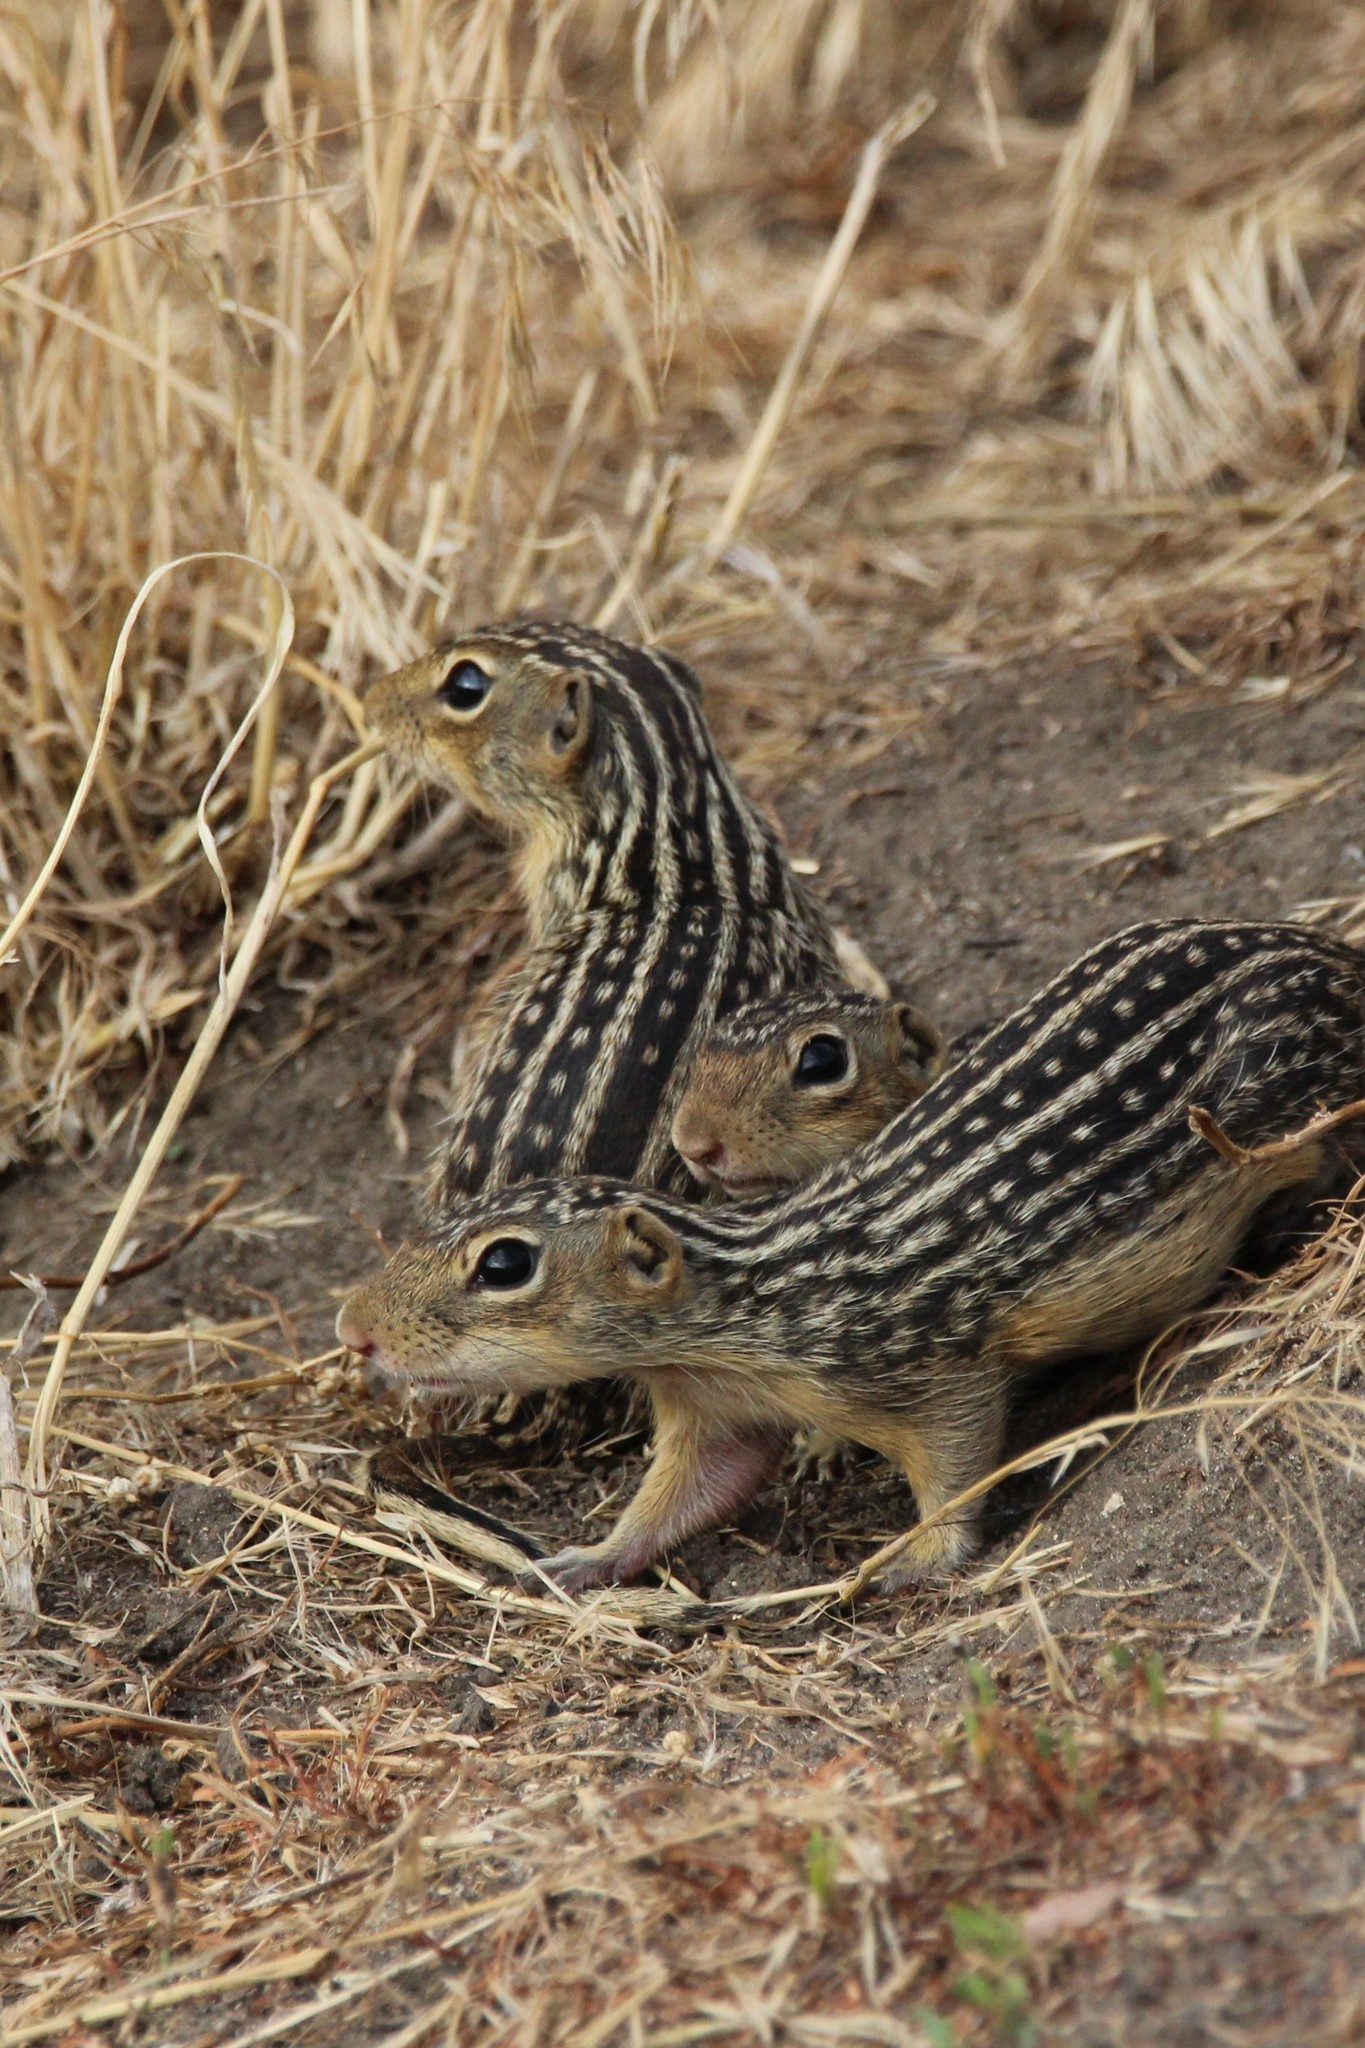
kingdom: Animalia
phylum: Chordata
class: Mammalia
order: Rodentia
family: Sciuridae
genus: Ictidomys
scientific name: Ictidomys tridecemlineatus
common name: Thirteen-lined ground squirrel
